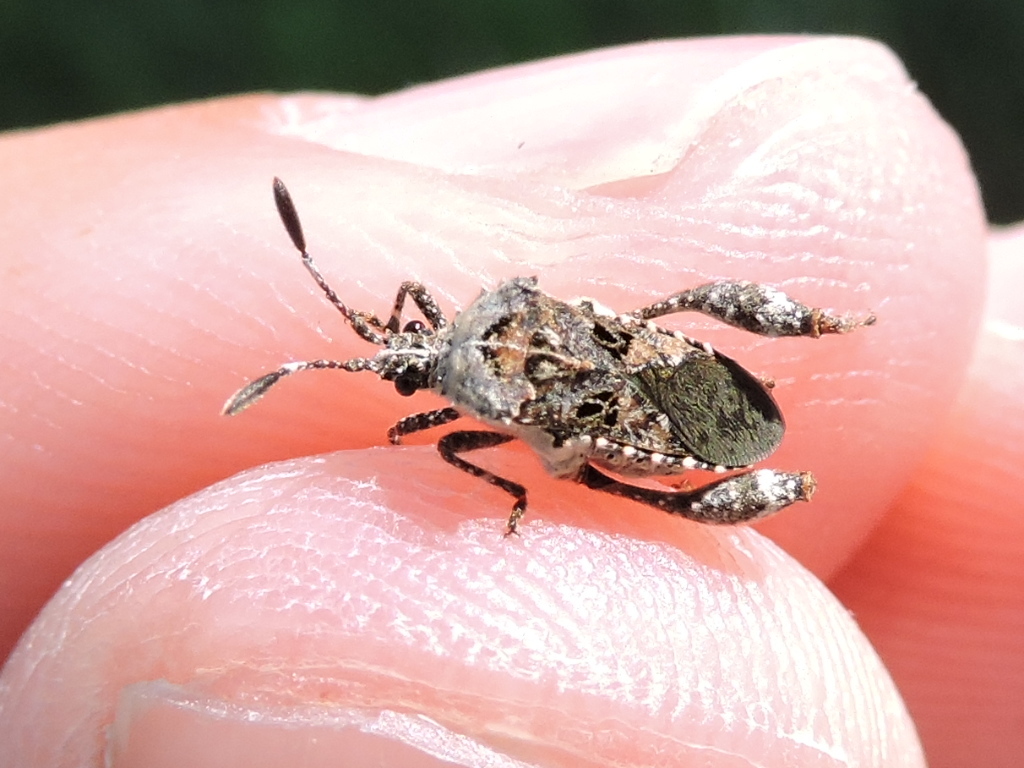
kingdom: Animalia
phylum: Arthropoda
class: Insecta
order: Hemiptera
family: Coreidae
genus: Merocoris
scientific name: Merocoris curtatus
